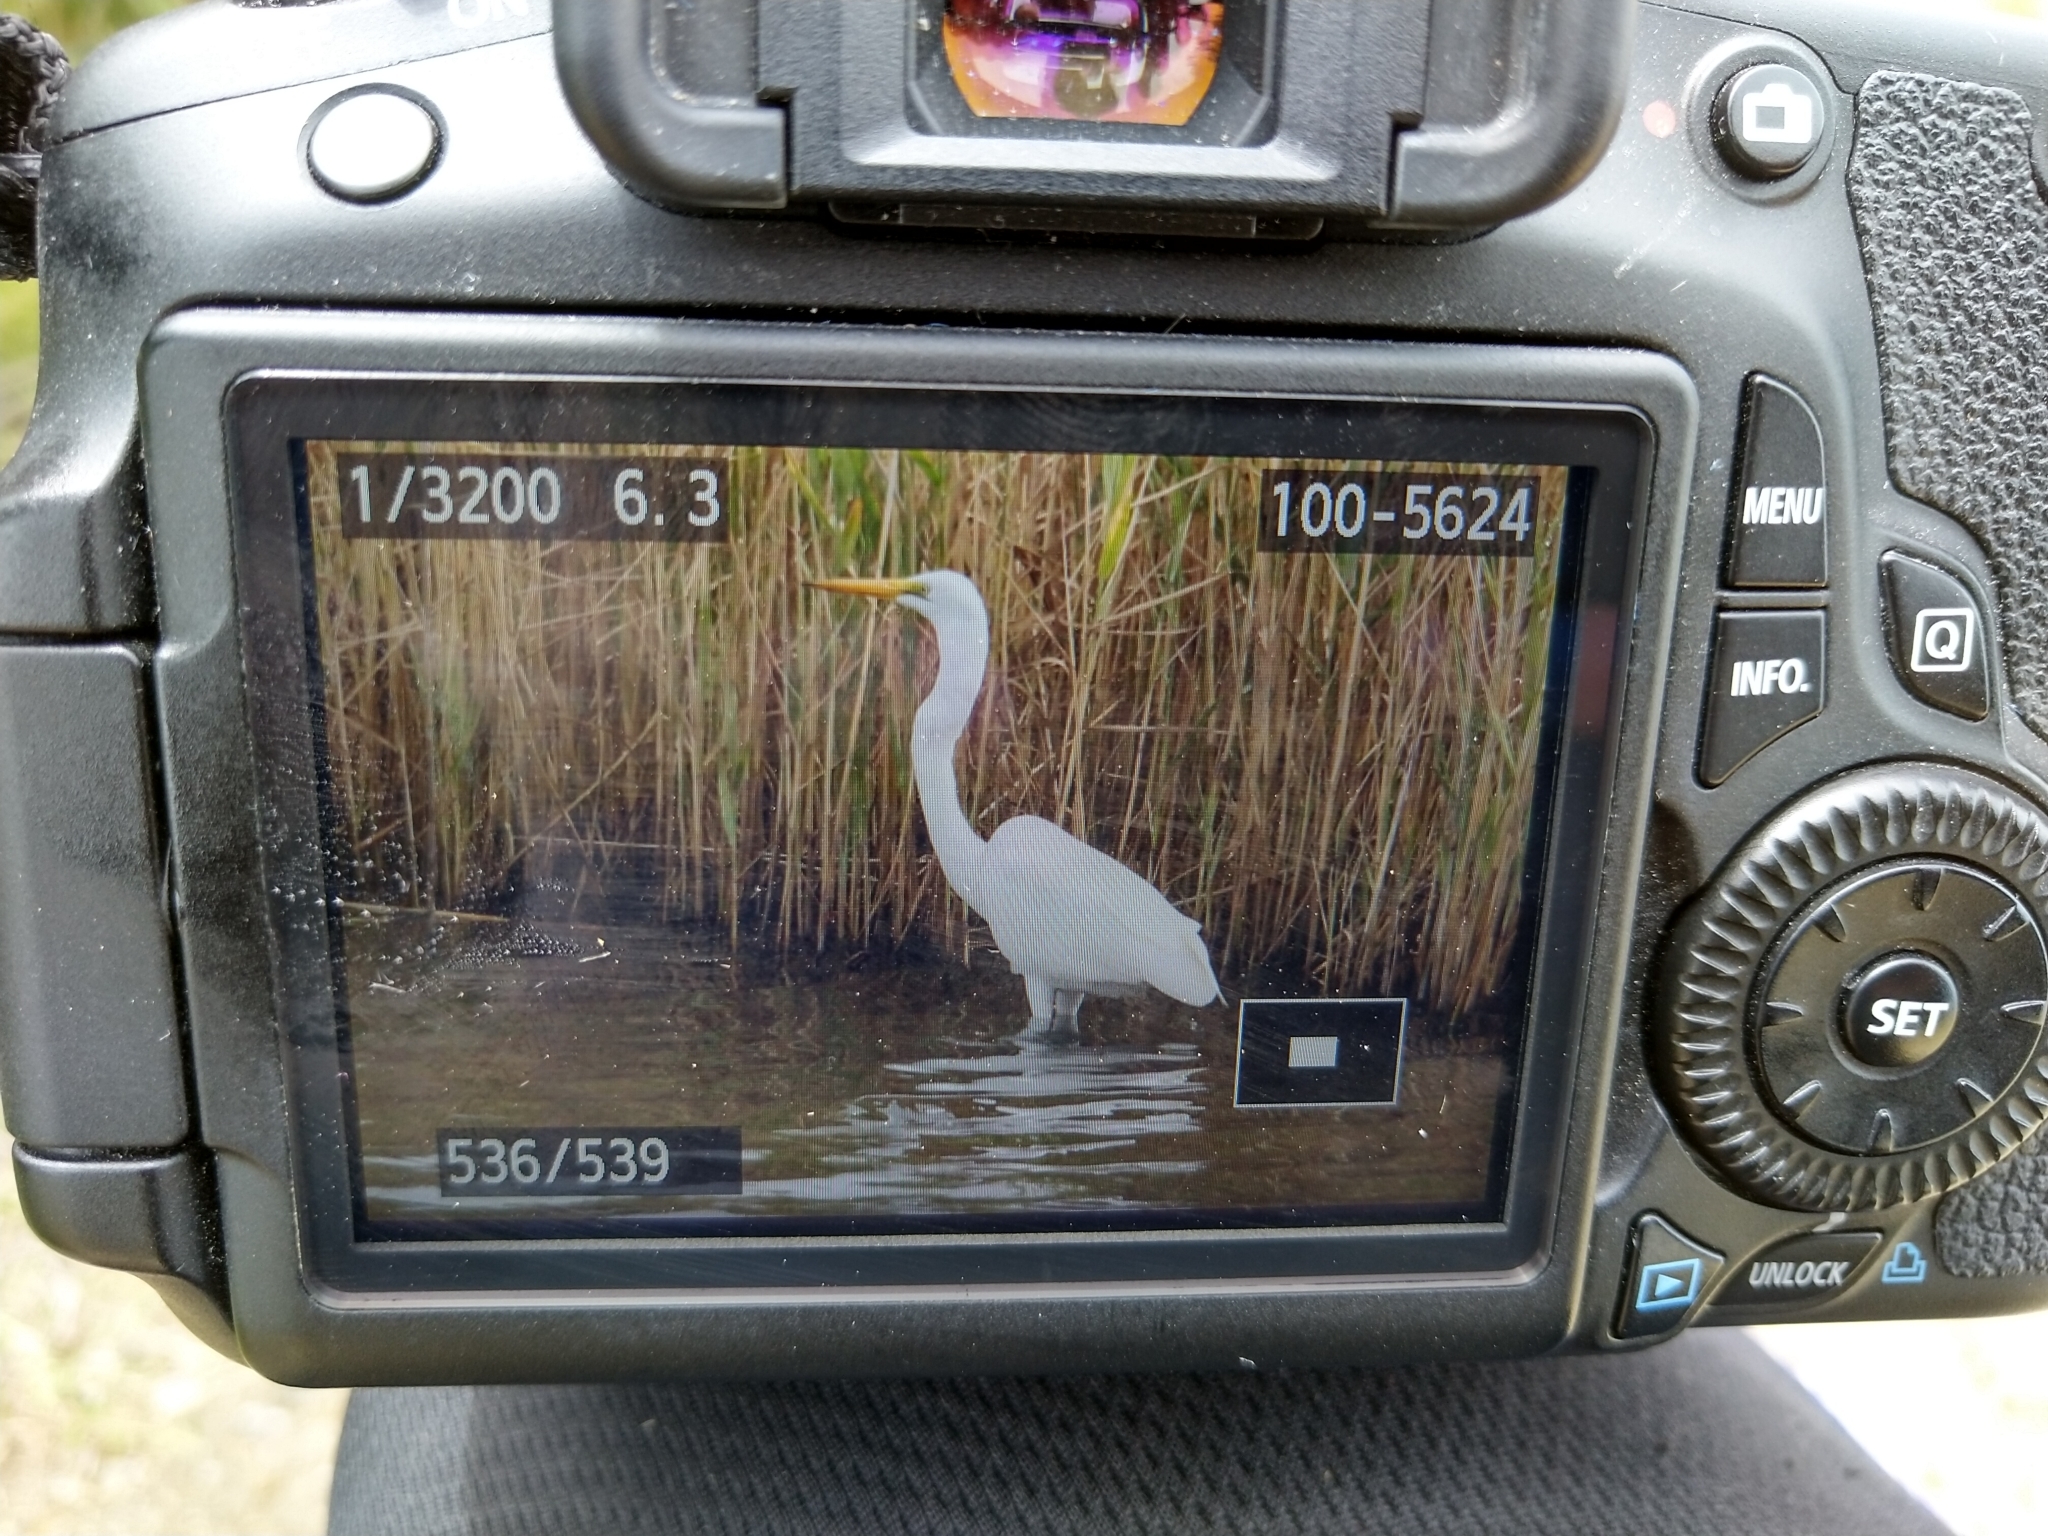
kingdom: Animalia
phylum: Chordata
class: Aves
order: Pelecaniformes
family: Ardeidae
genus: Ardea
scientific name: Ardea modesta
